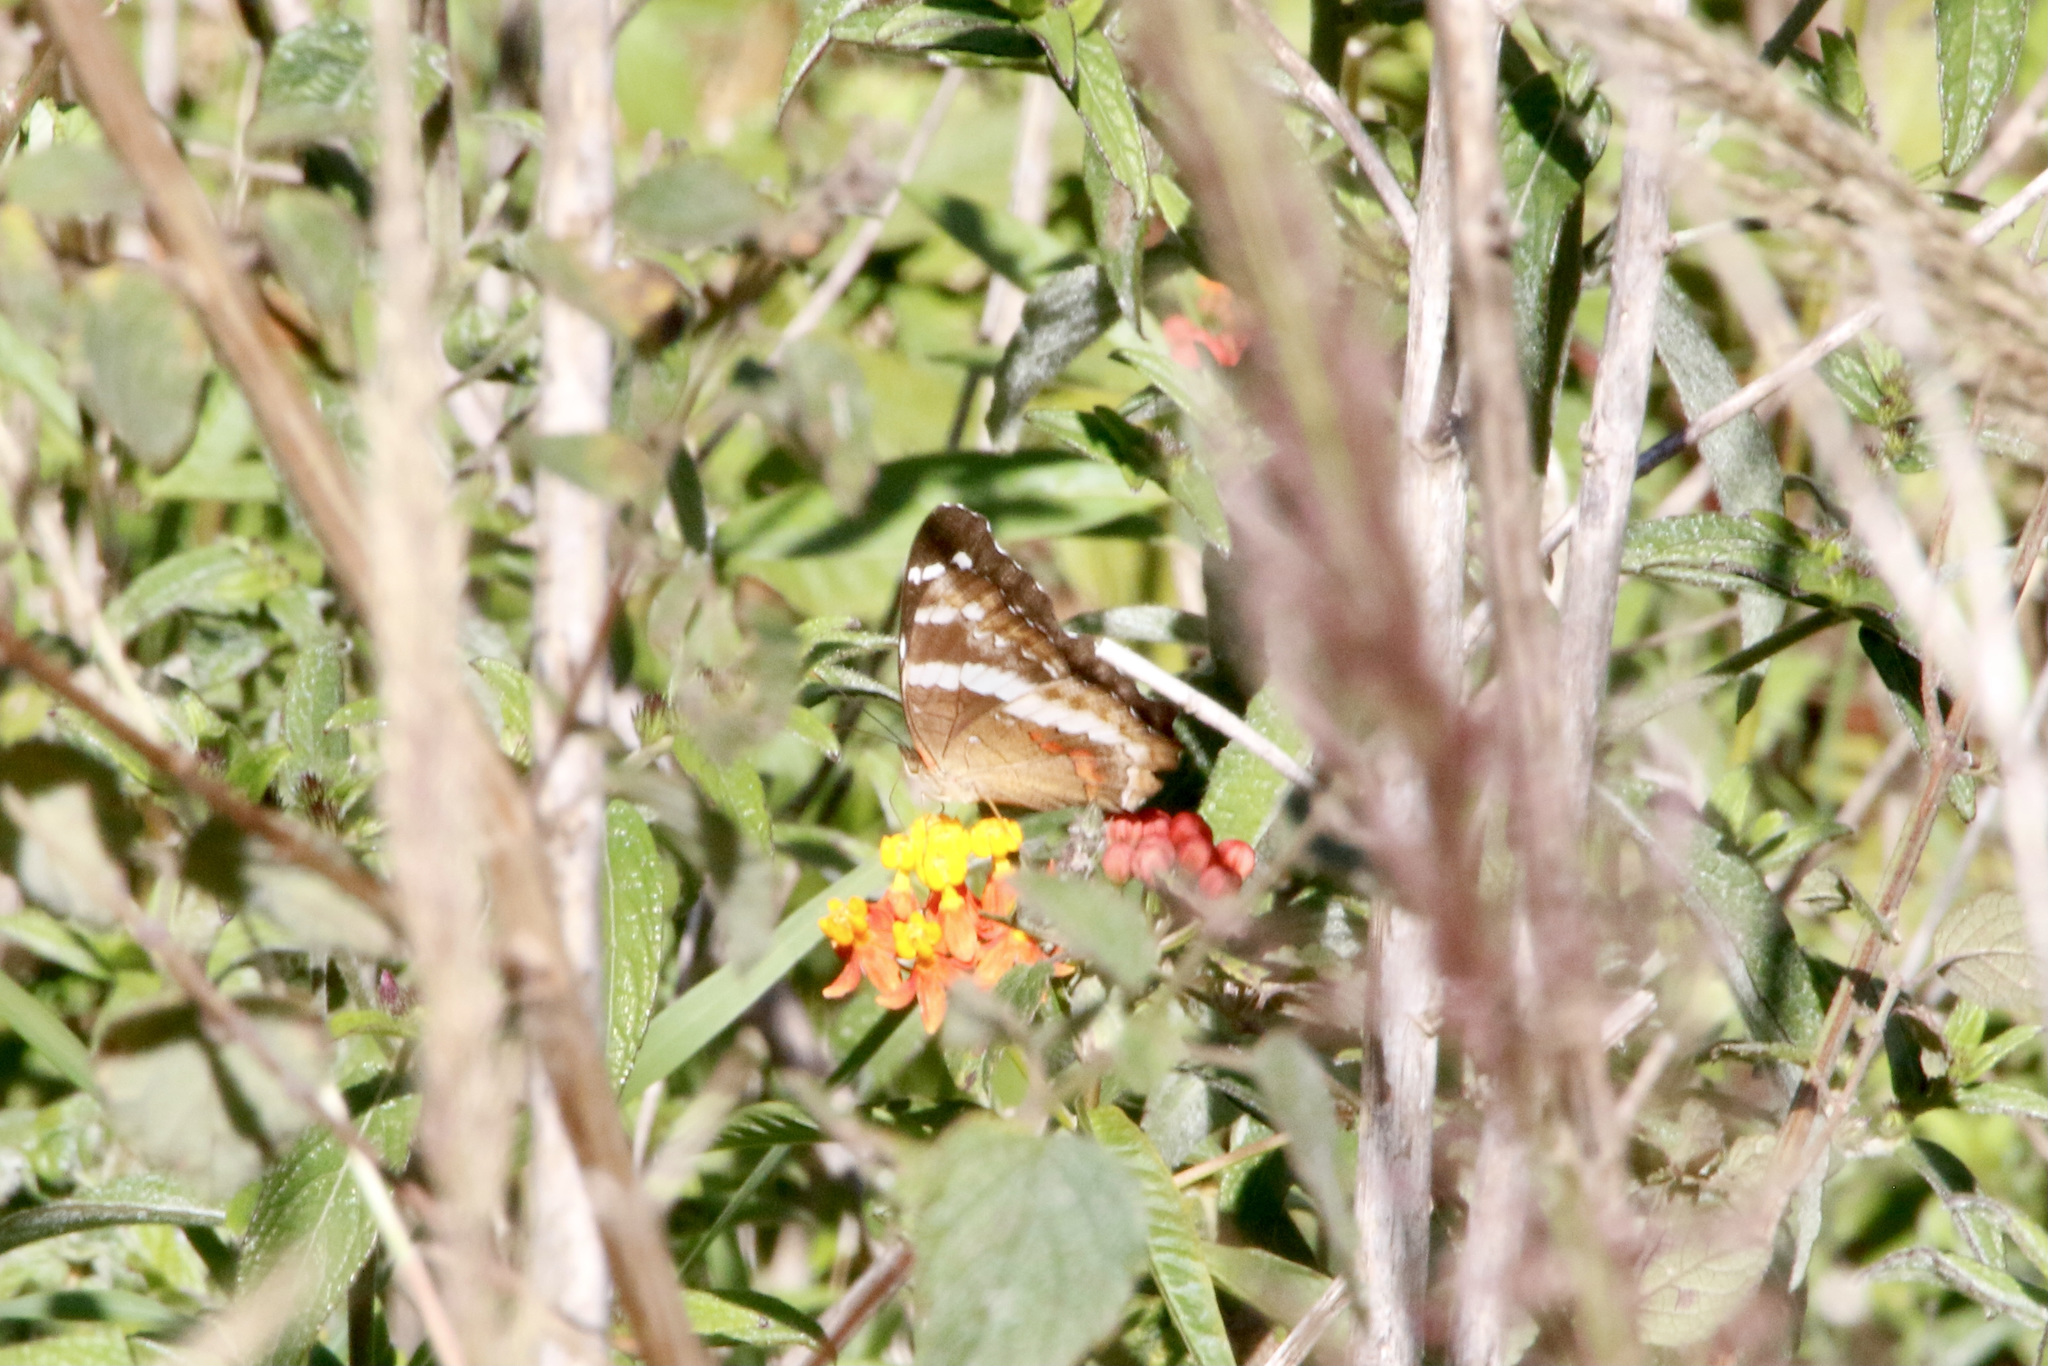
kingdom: Animalia
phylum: Arthropoda
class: Insecta
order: Lepidoptera
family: Nymphalidae
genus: Anartia
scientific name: Anartia fatima
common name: Banded peacock
